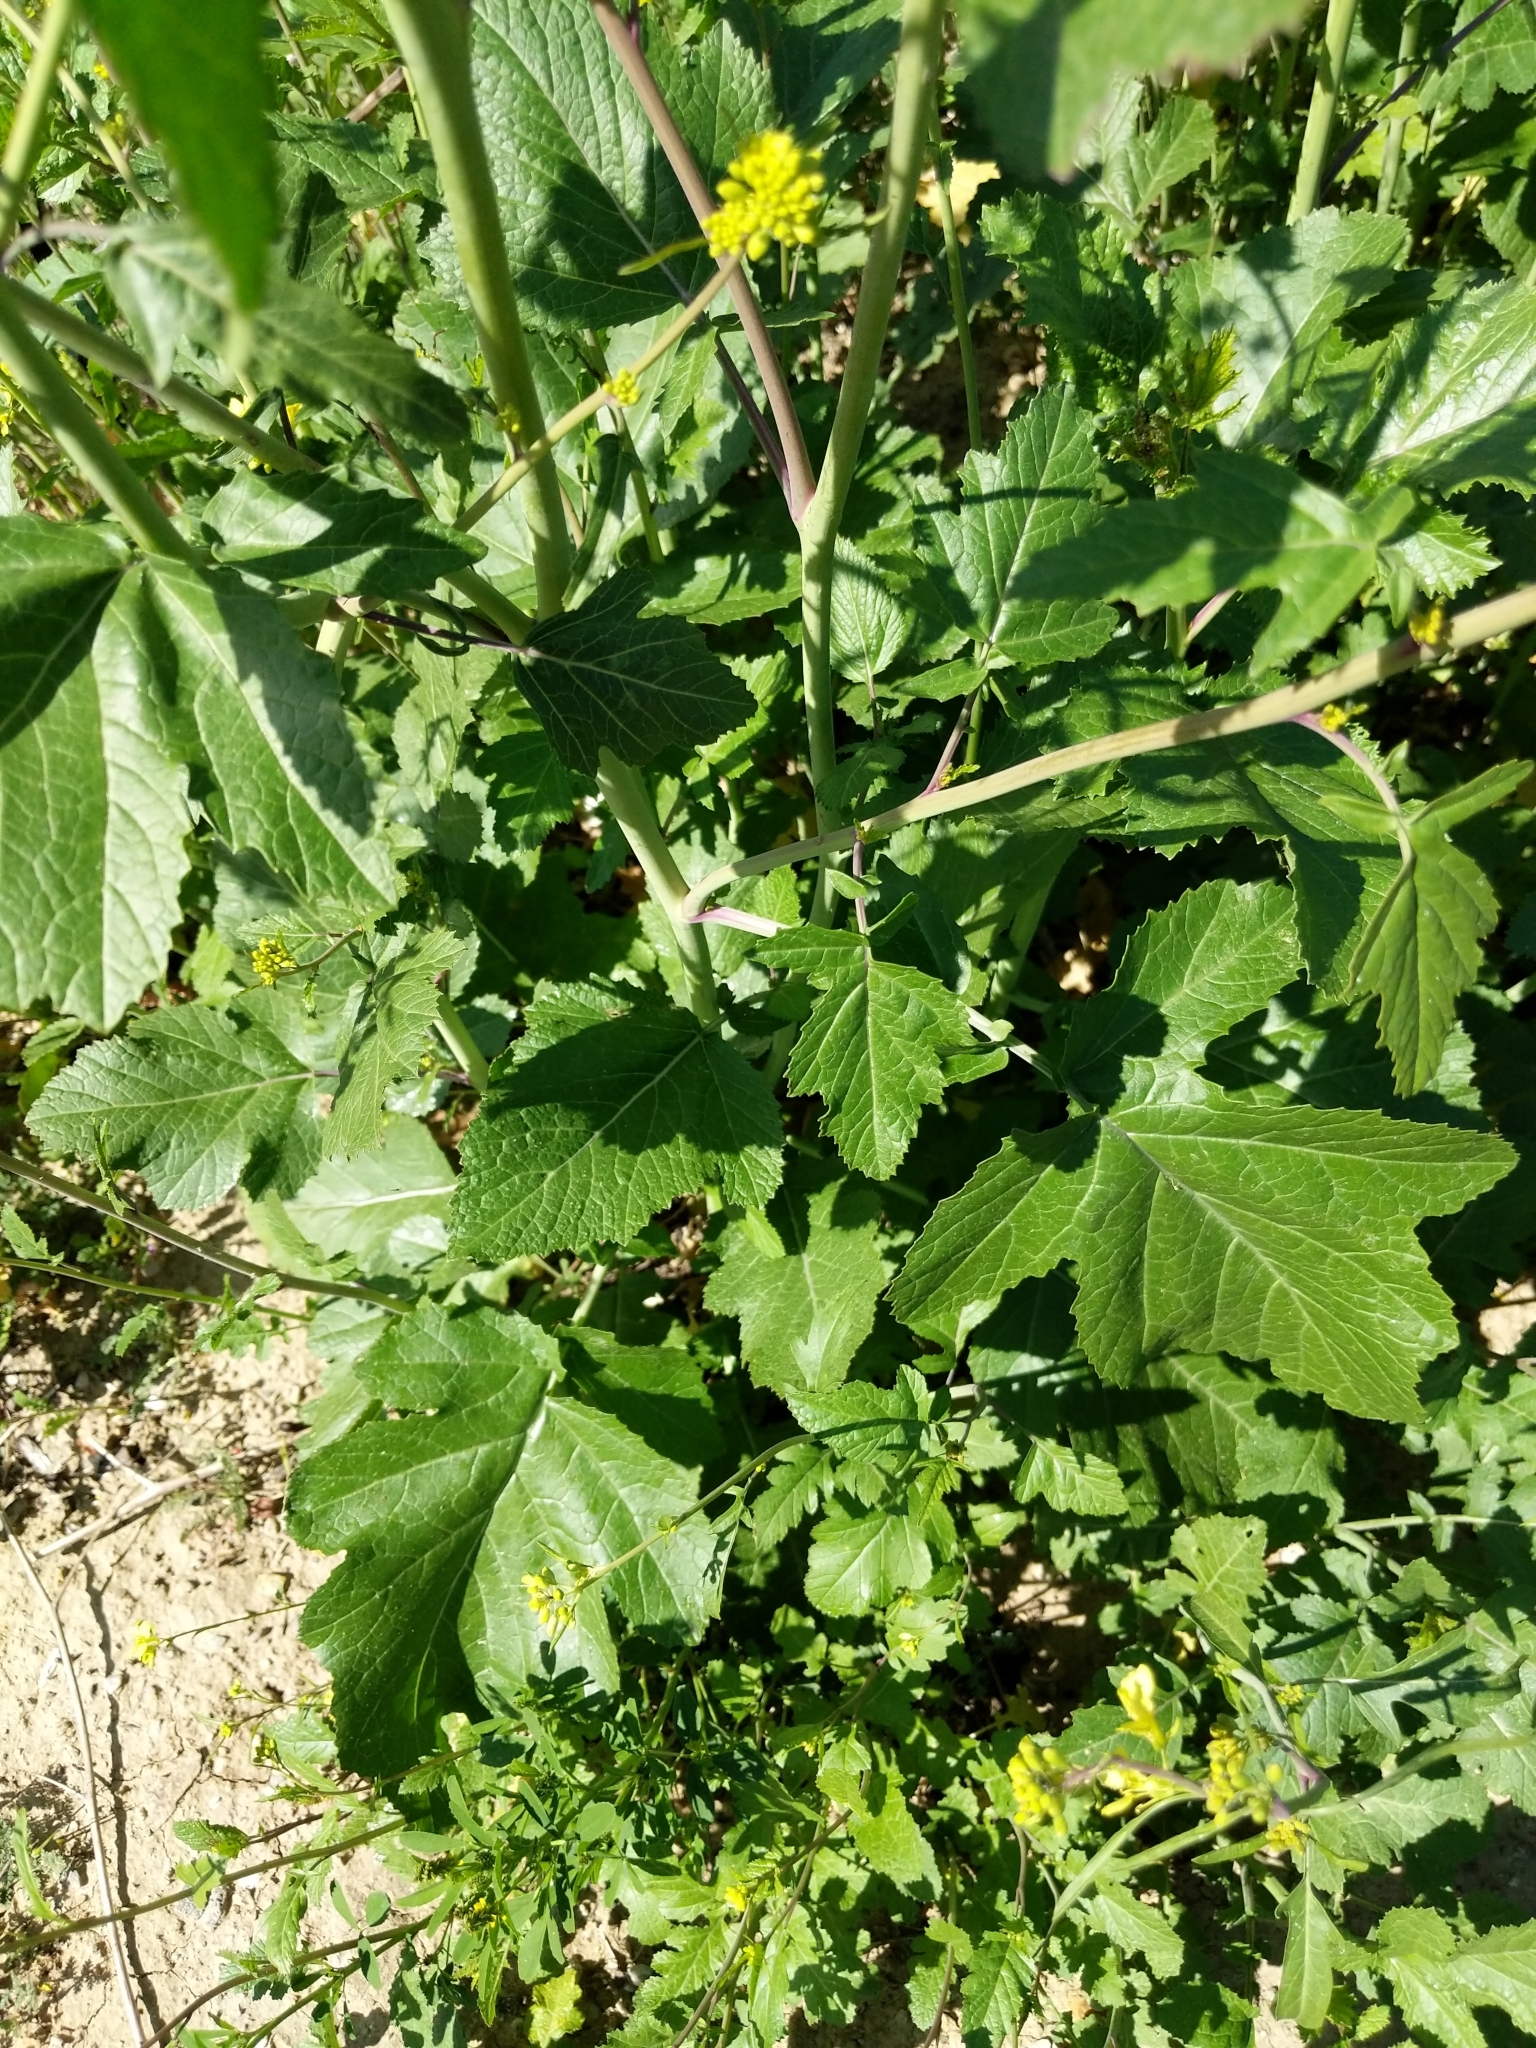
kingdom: Plantae
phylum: Tracheophyta
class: Magnoliopsida
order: Brassicales
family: Brassicaceae
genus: Brassica
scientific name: Brassica nigra
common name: Black mustard
